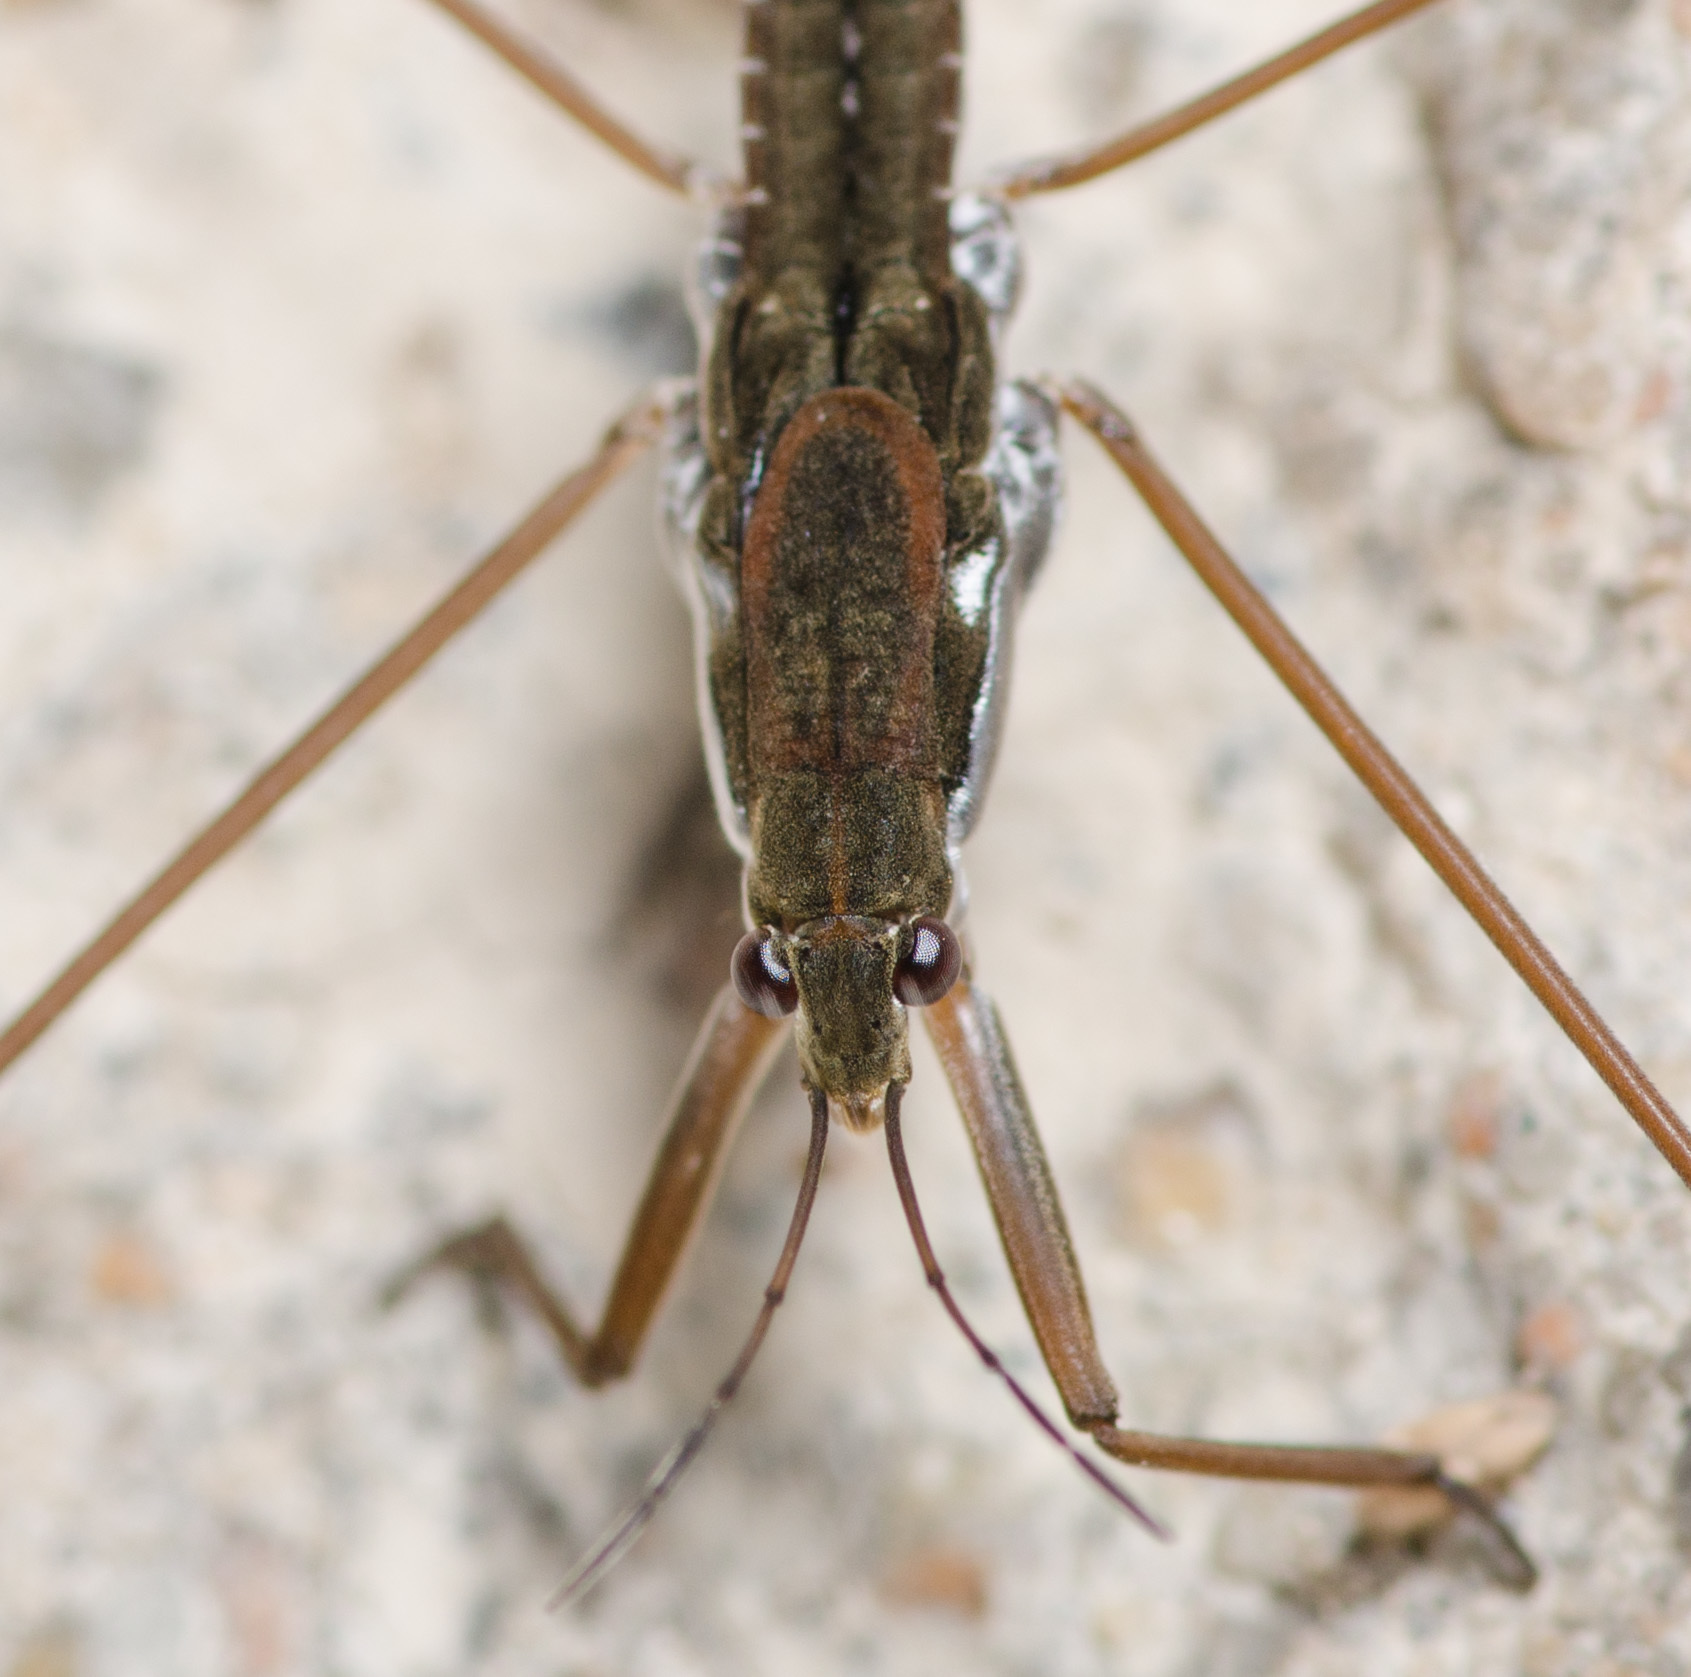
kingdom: Animalia
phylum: Arthropoda
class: Insecta
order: Hemiptera
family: Gerridae
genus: Aquarius
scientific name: Aquarius remigis
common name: Common water strider
